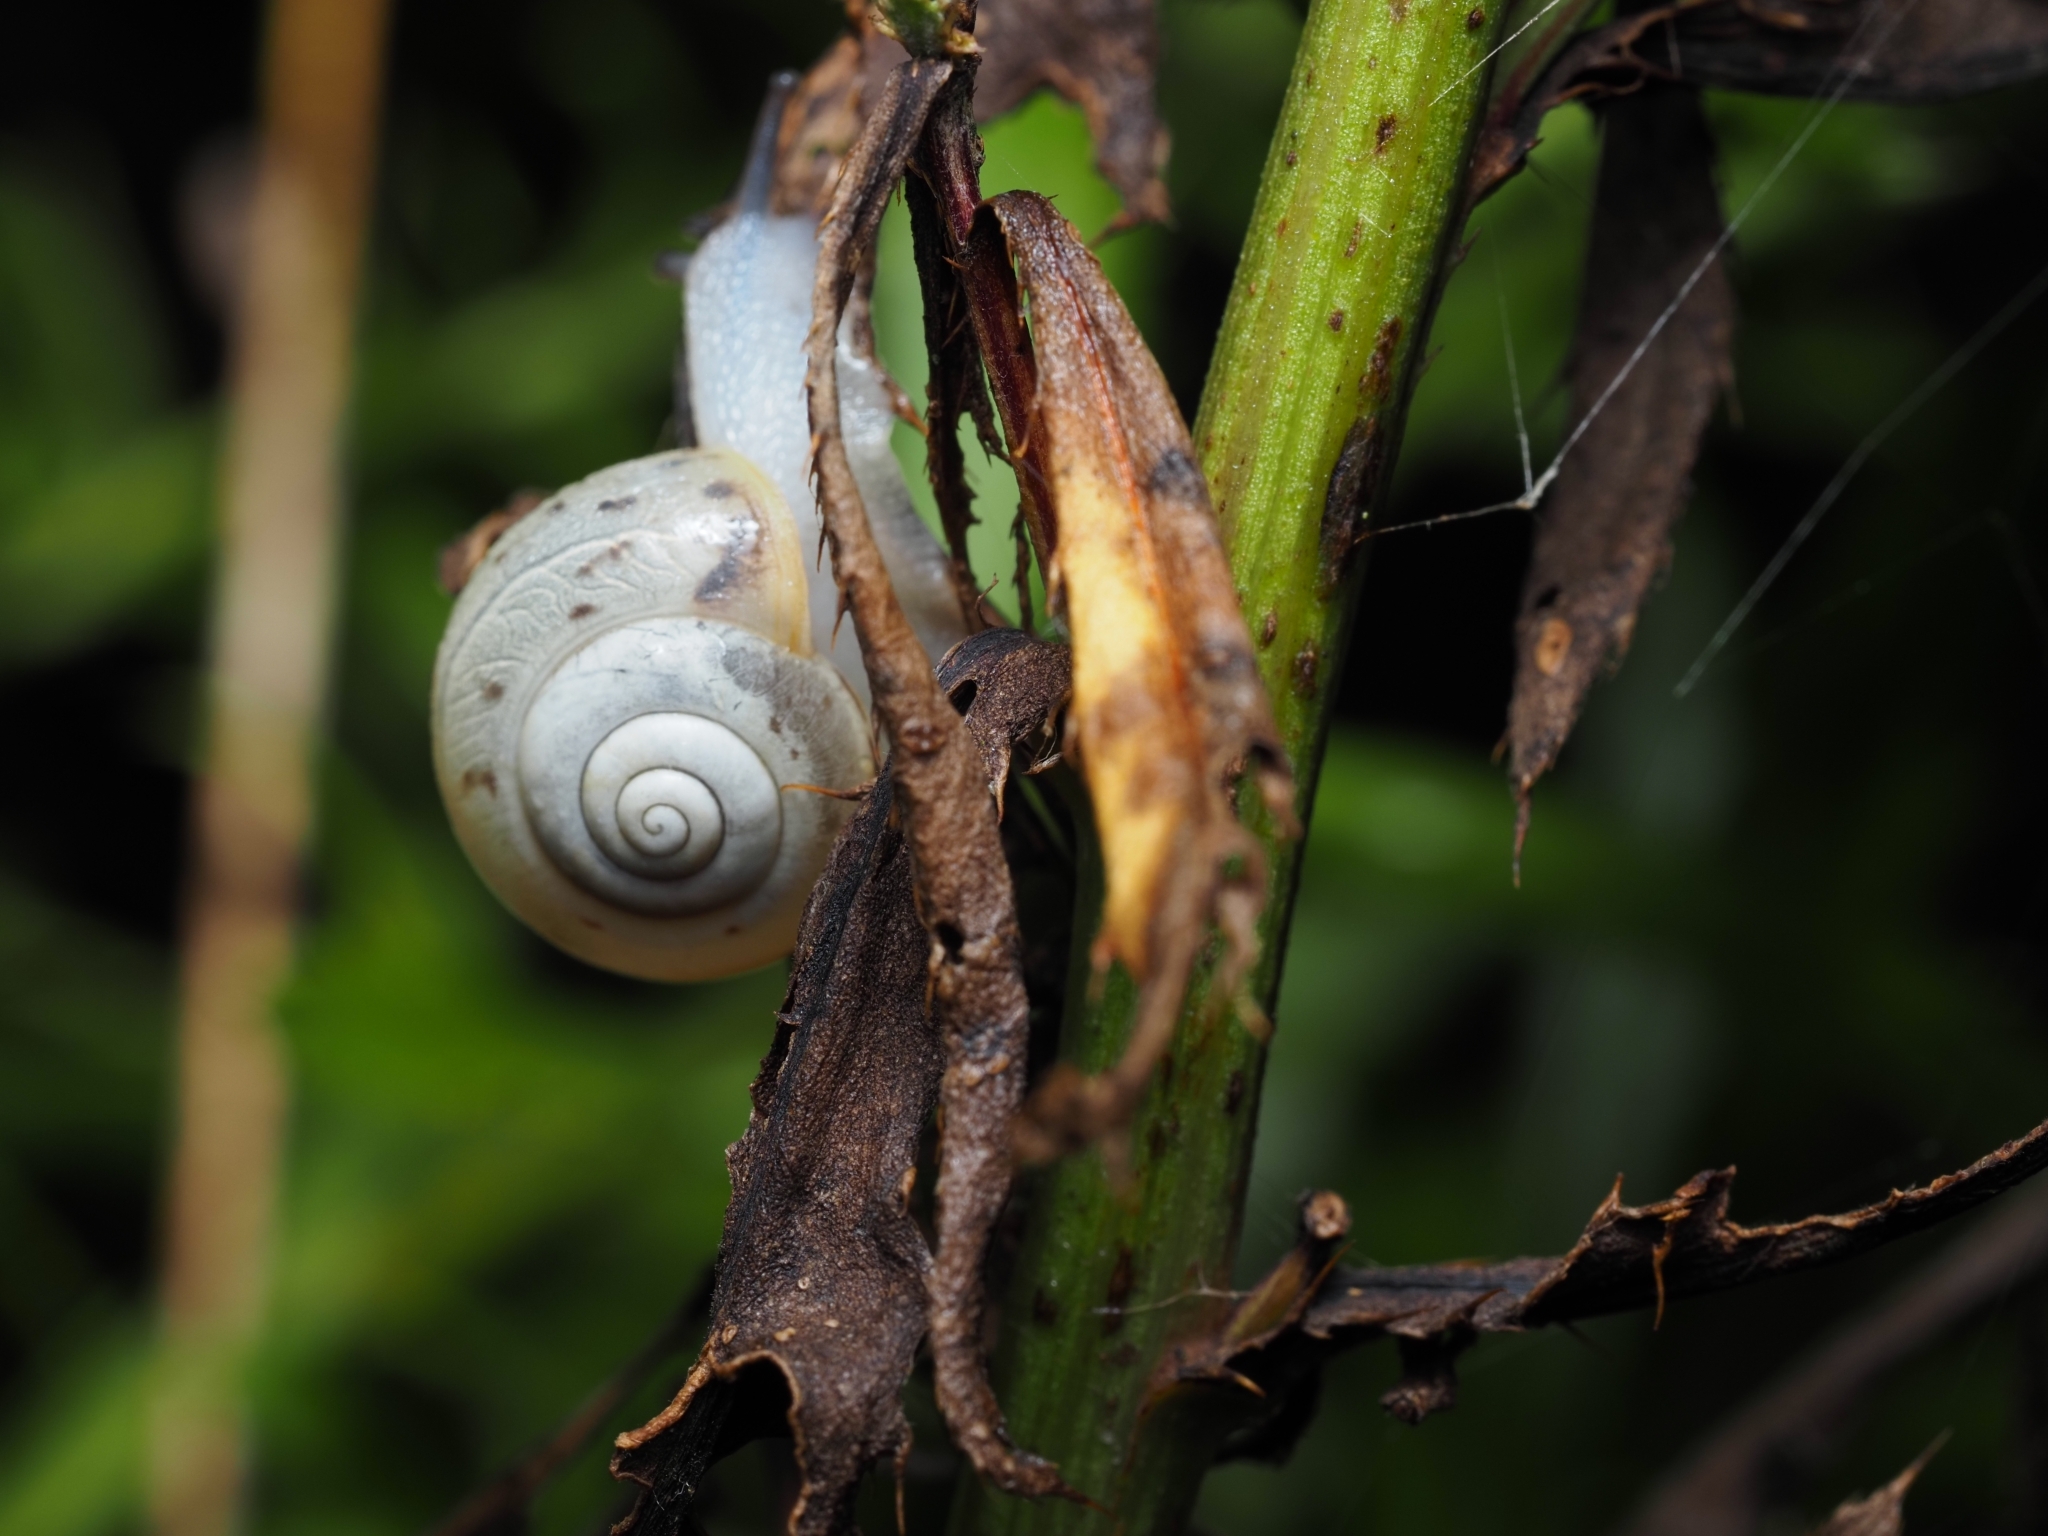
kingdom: Animalia
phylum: Mollusca
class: Gastropoda
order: Stylommatophora
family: Camaenidae
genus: Fruticicola
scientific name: Fruticicola fruticum
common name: Bush snail
